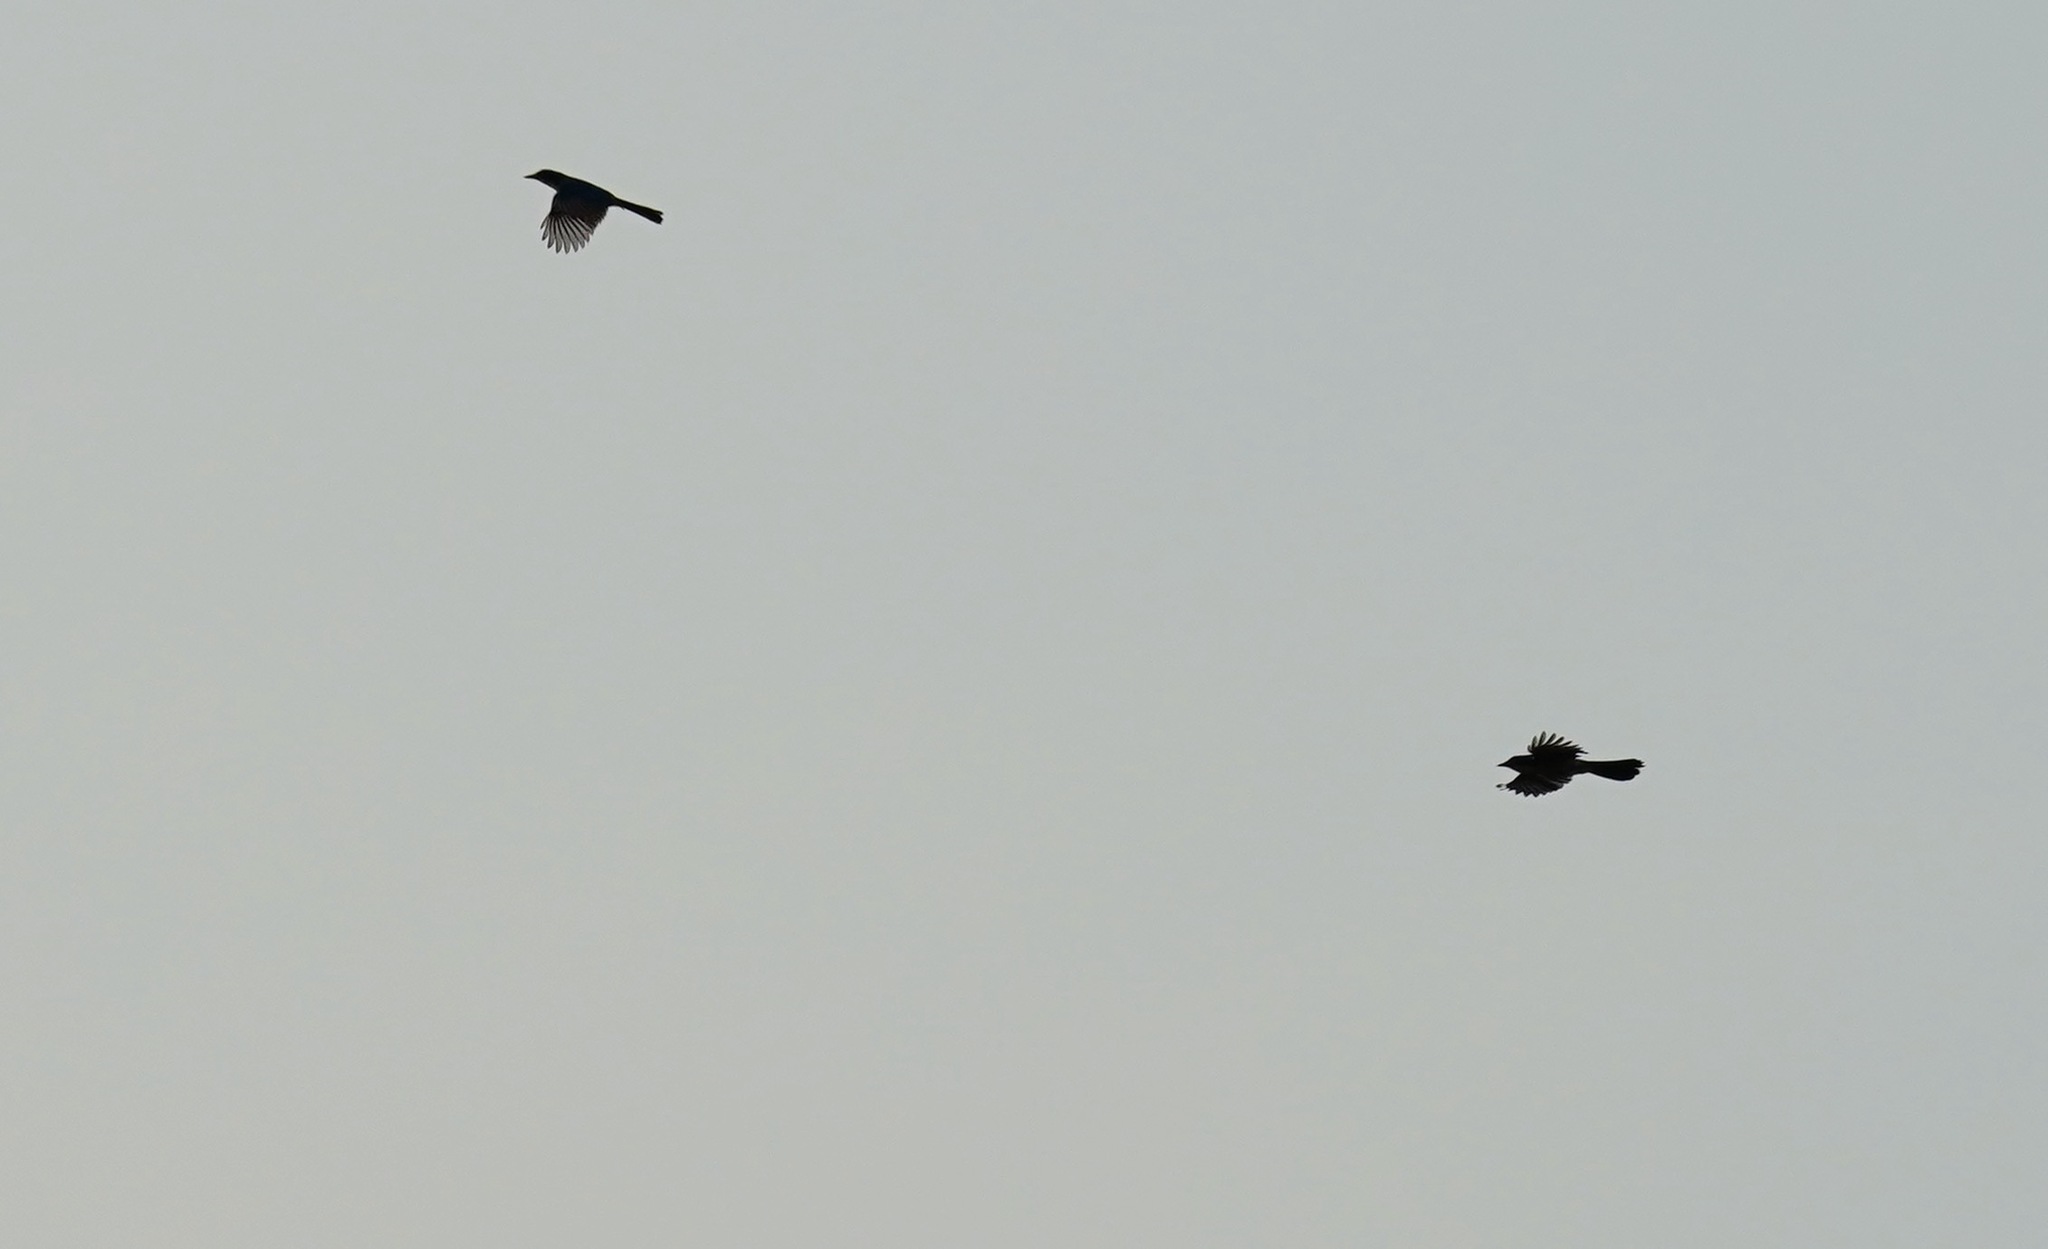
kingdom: Animalia
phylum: Chordata
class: Aves
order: Passeriformes
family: Corvidae
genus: Aphelocoma
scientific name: Aphelocoma californica
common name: California scrub-jay
